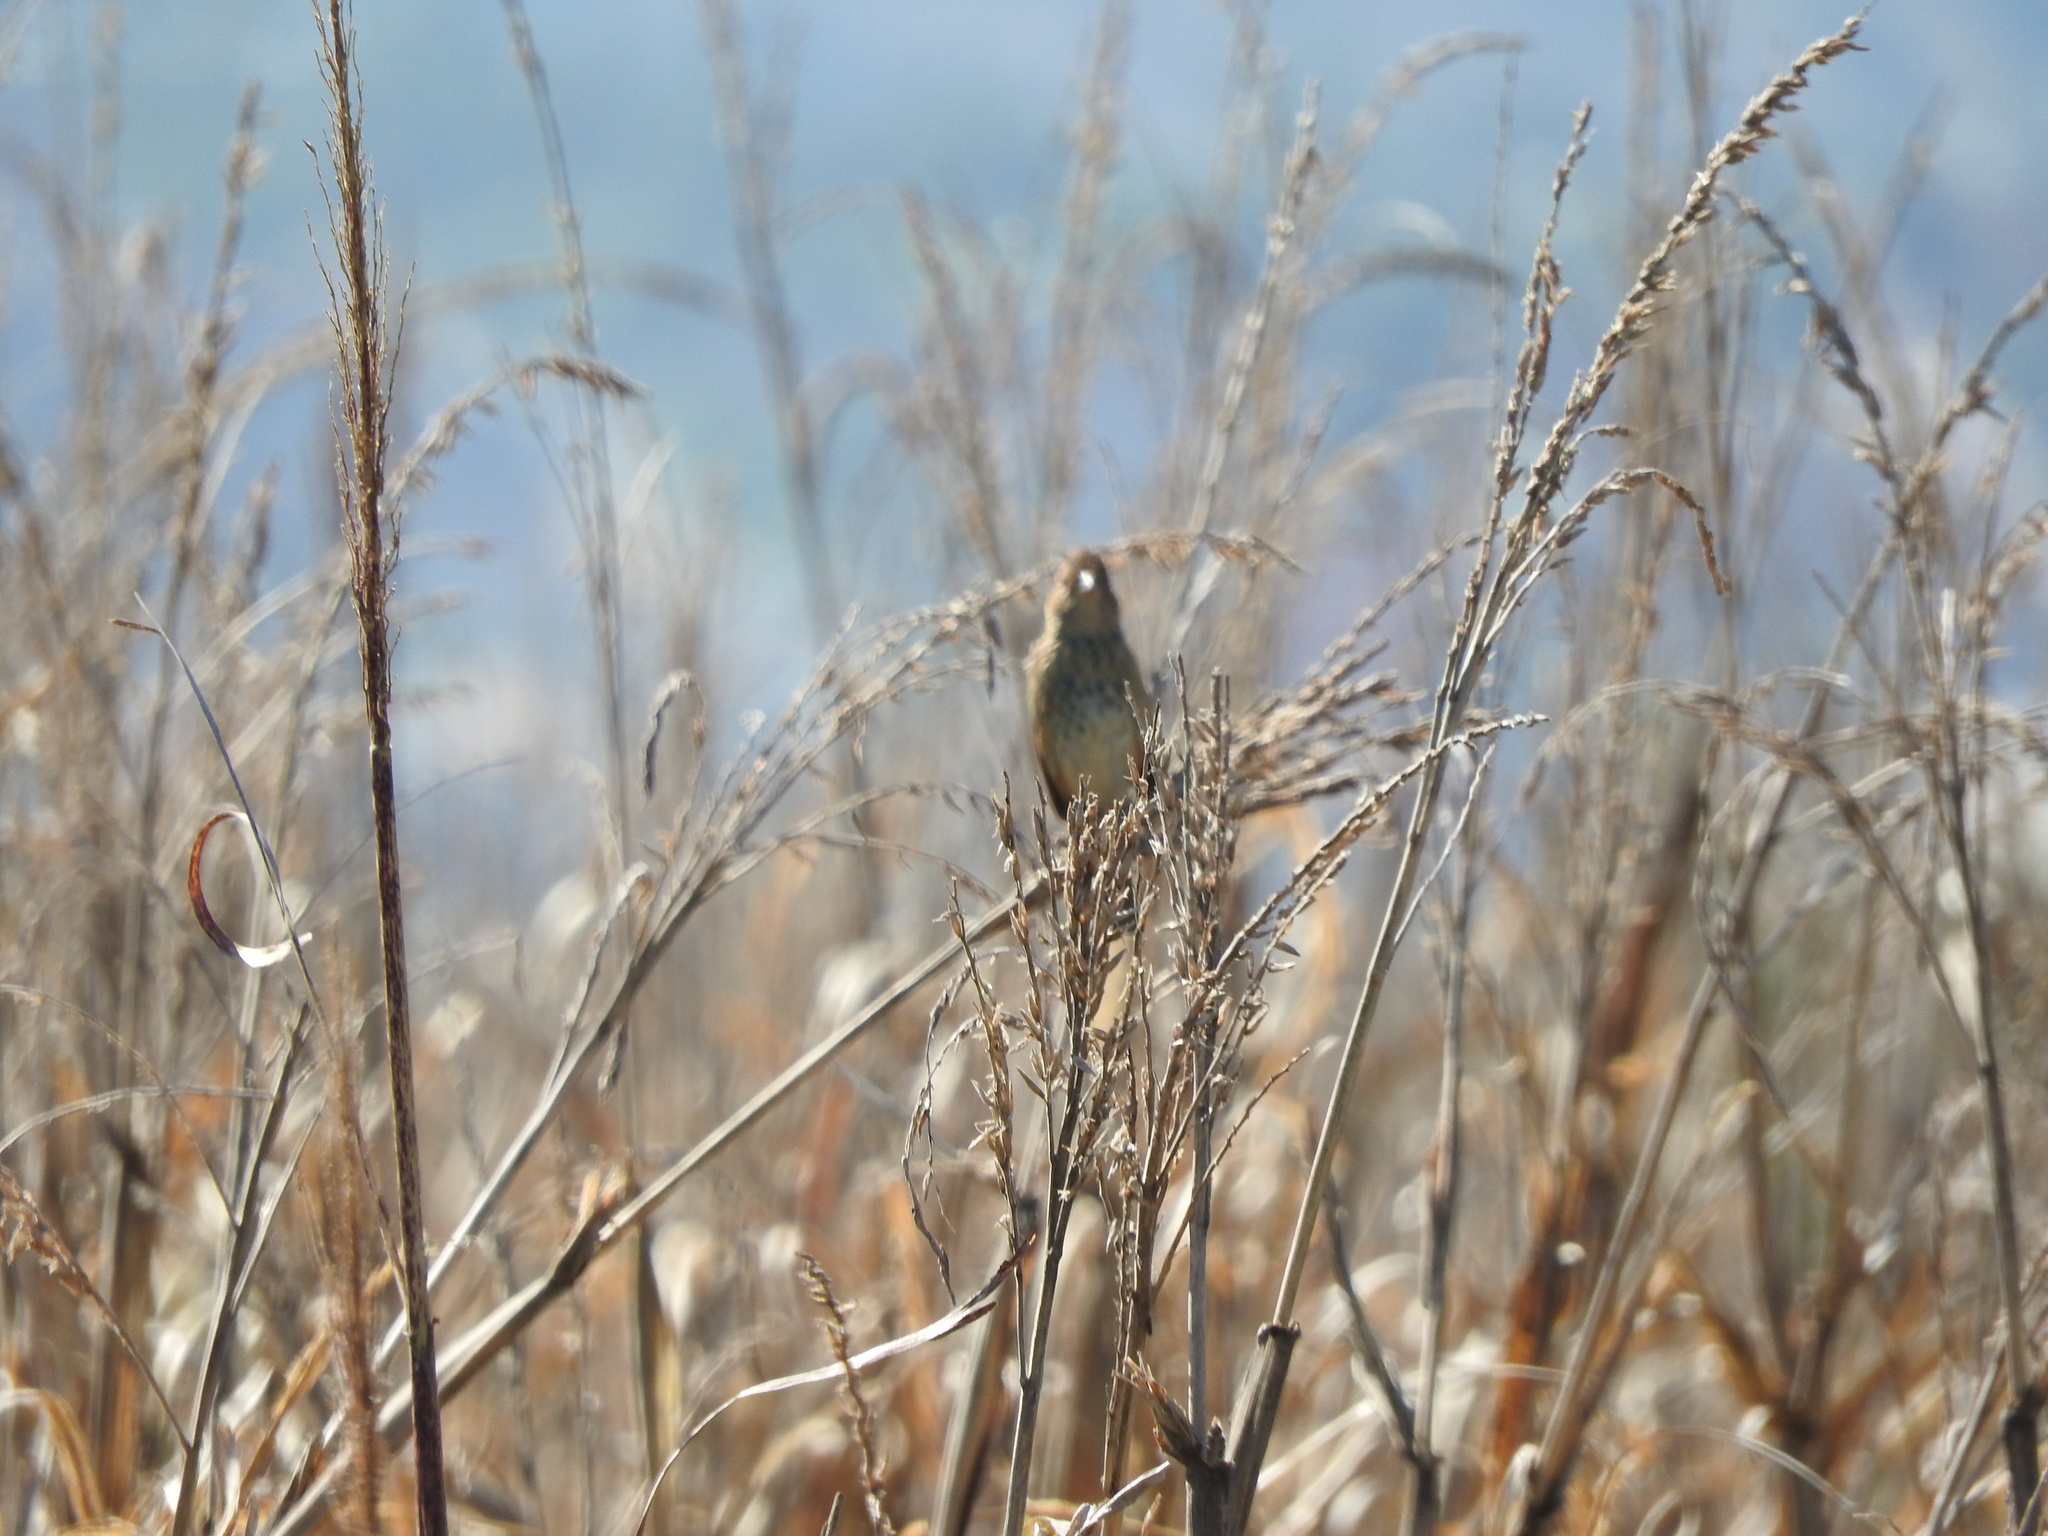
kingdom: Animalia
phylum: Chordata
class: Aves
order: Passeriformes
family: Cardinalidae
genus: Passerina
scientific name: Passerina cyanea
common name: Indigo bunting
